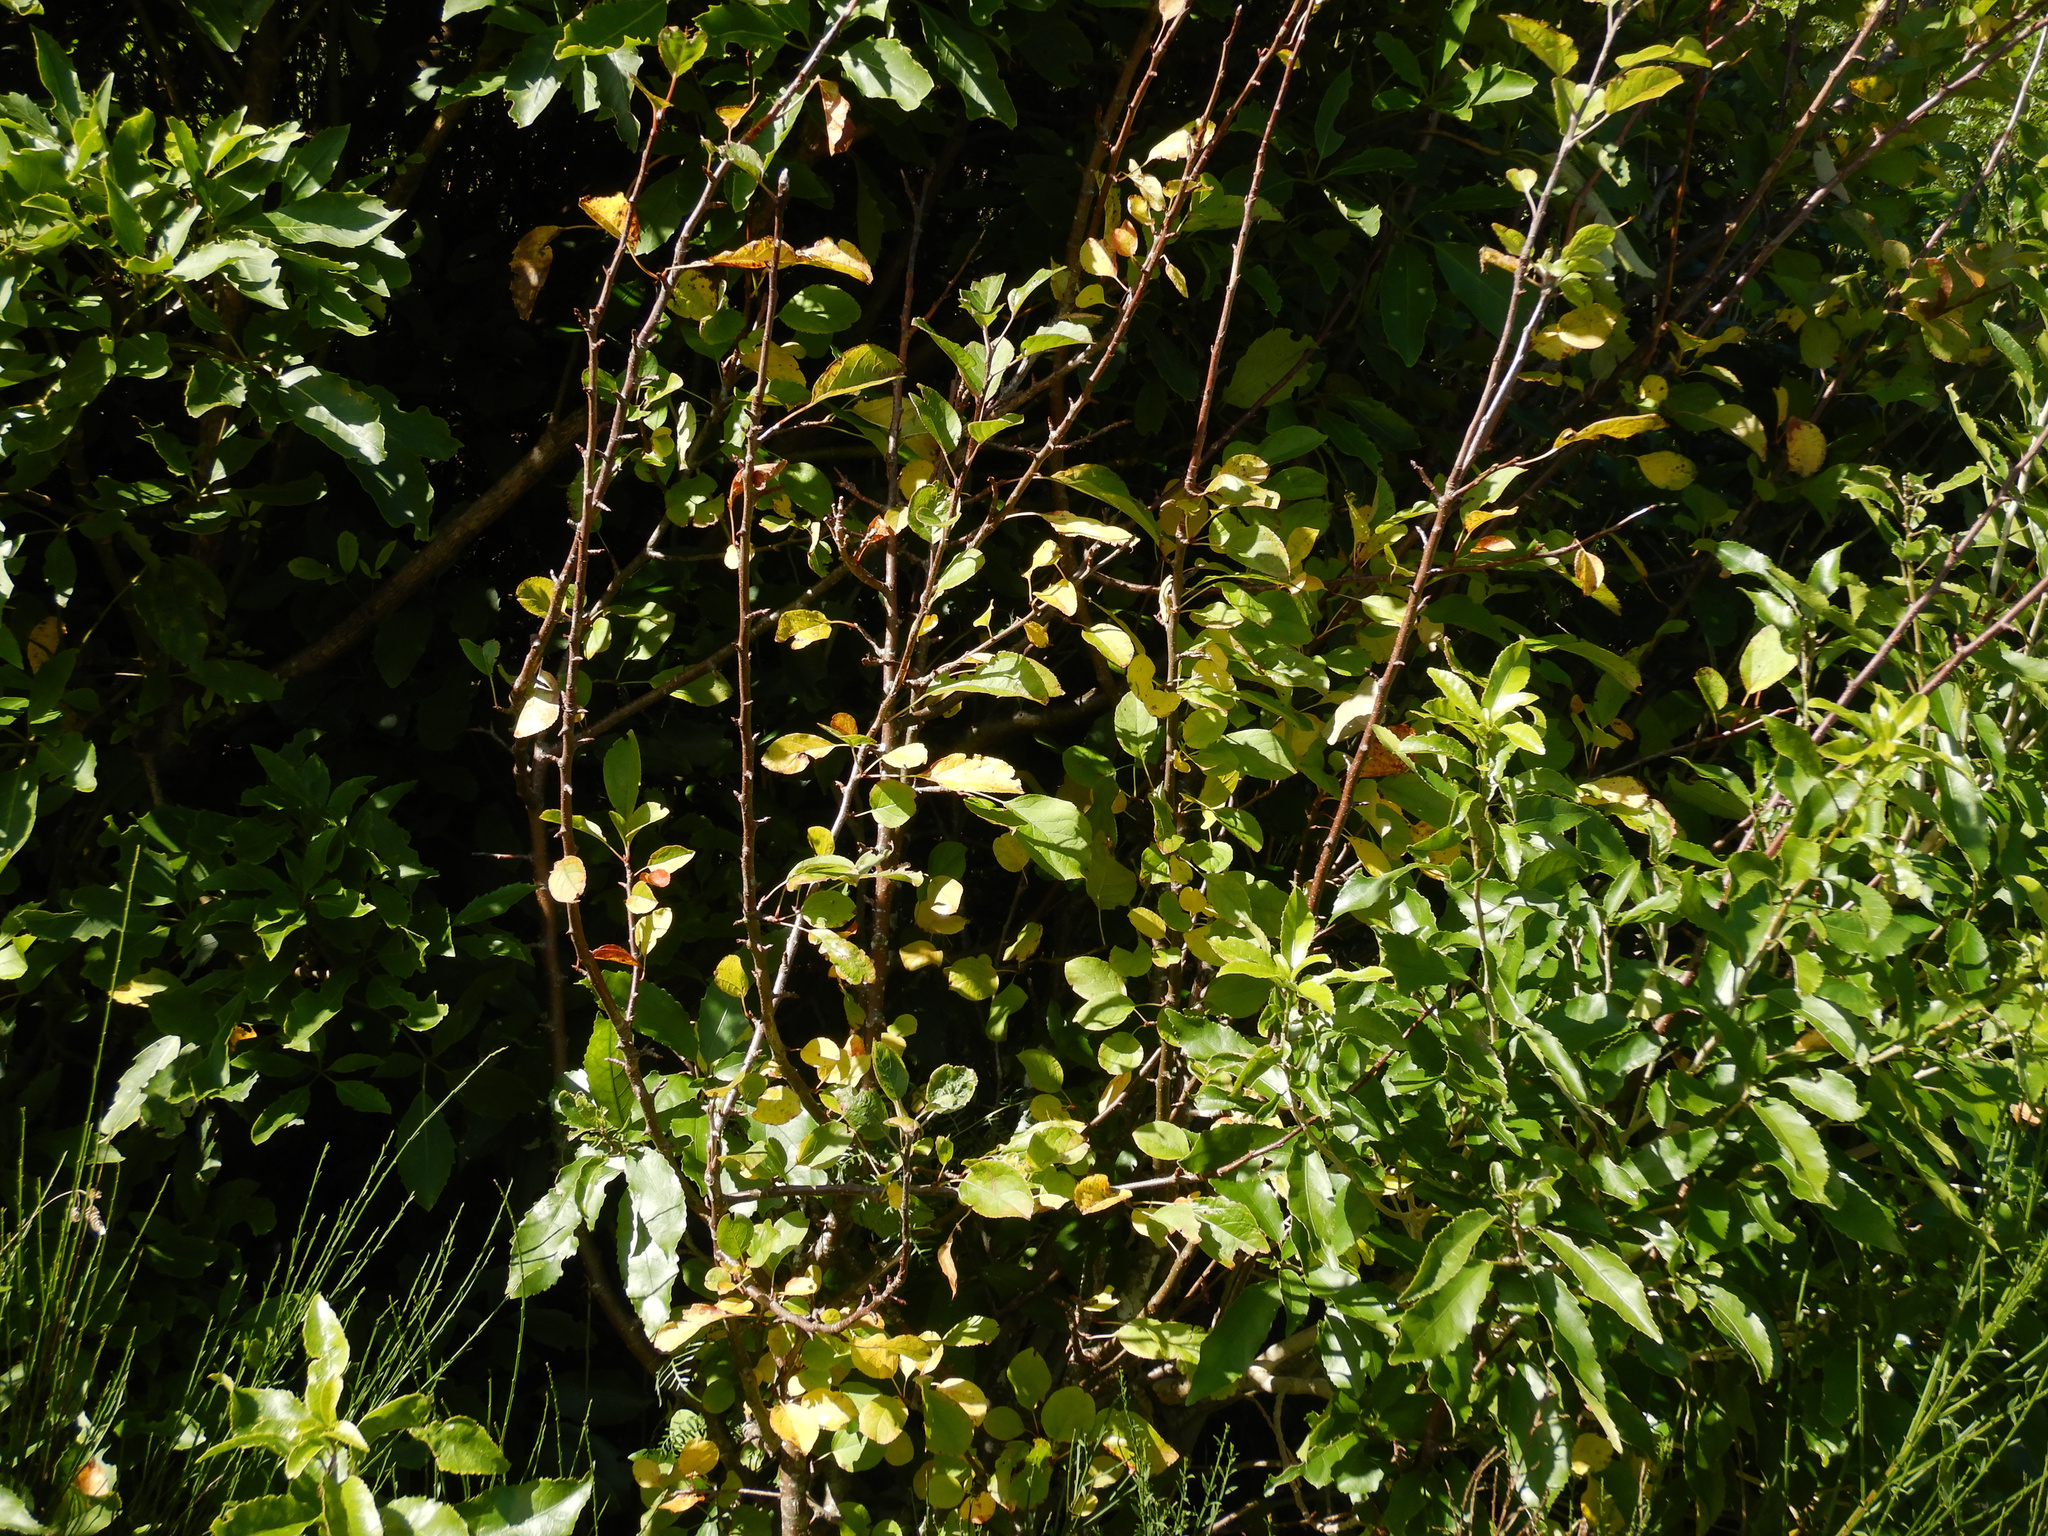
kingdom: Plantae
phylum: Tracheophyta
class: Magnoliopsida
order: Rosales
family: Rosaceae
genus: Malus
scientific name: Malus domestica
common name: Apple
